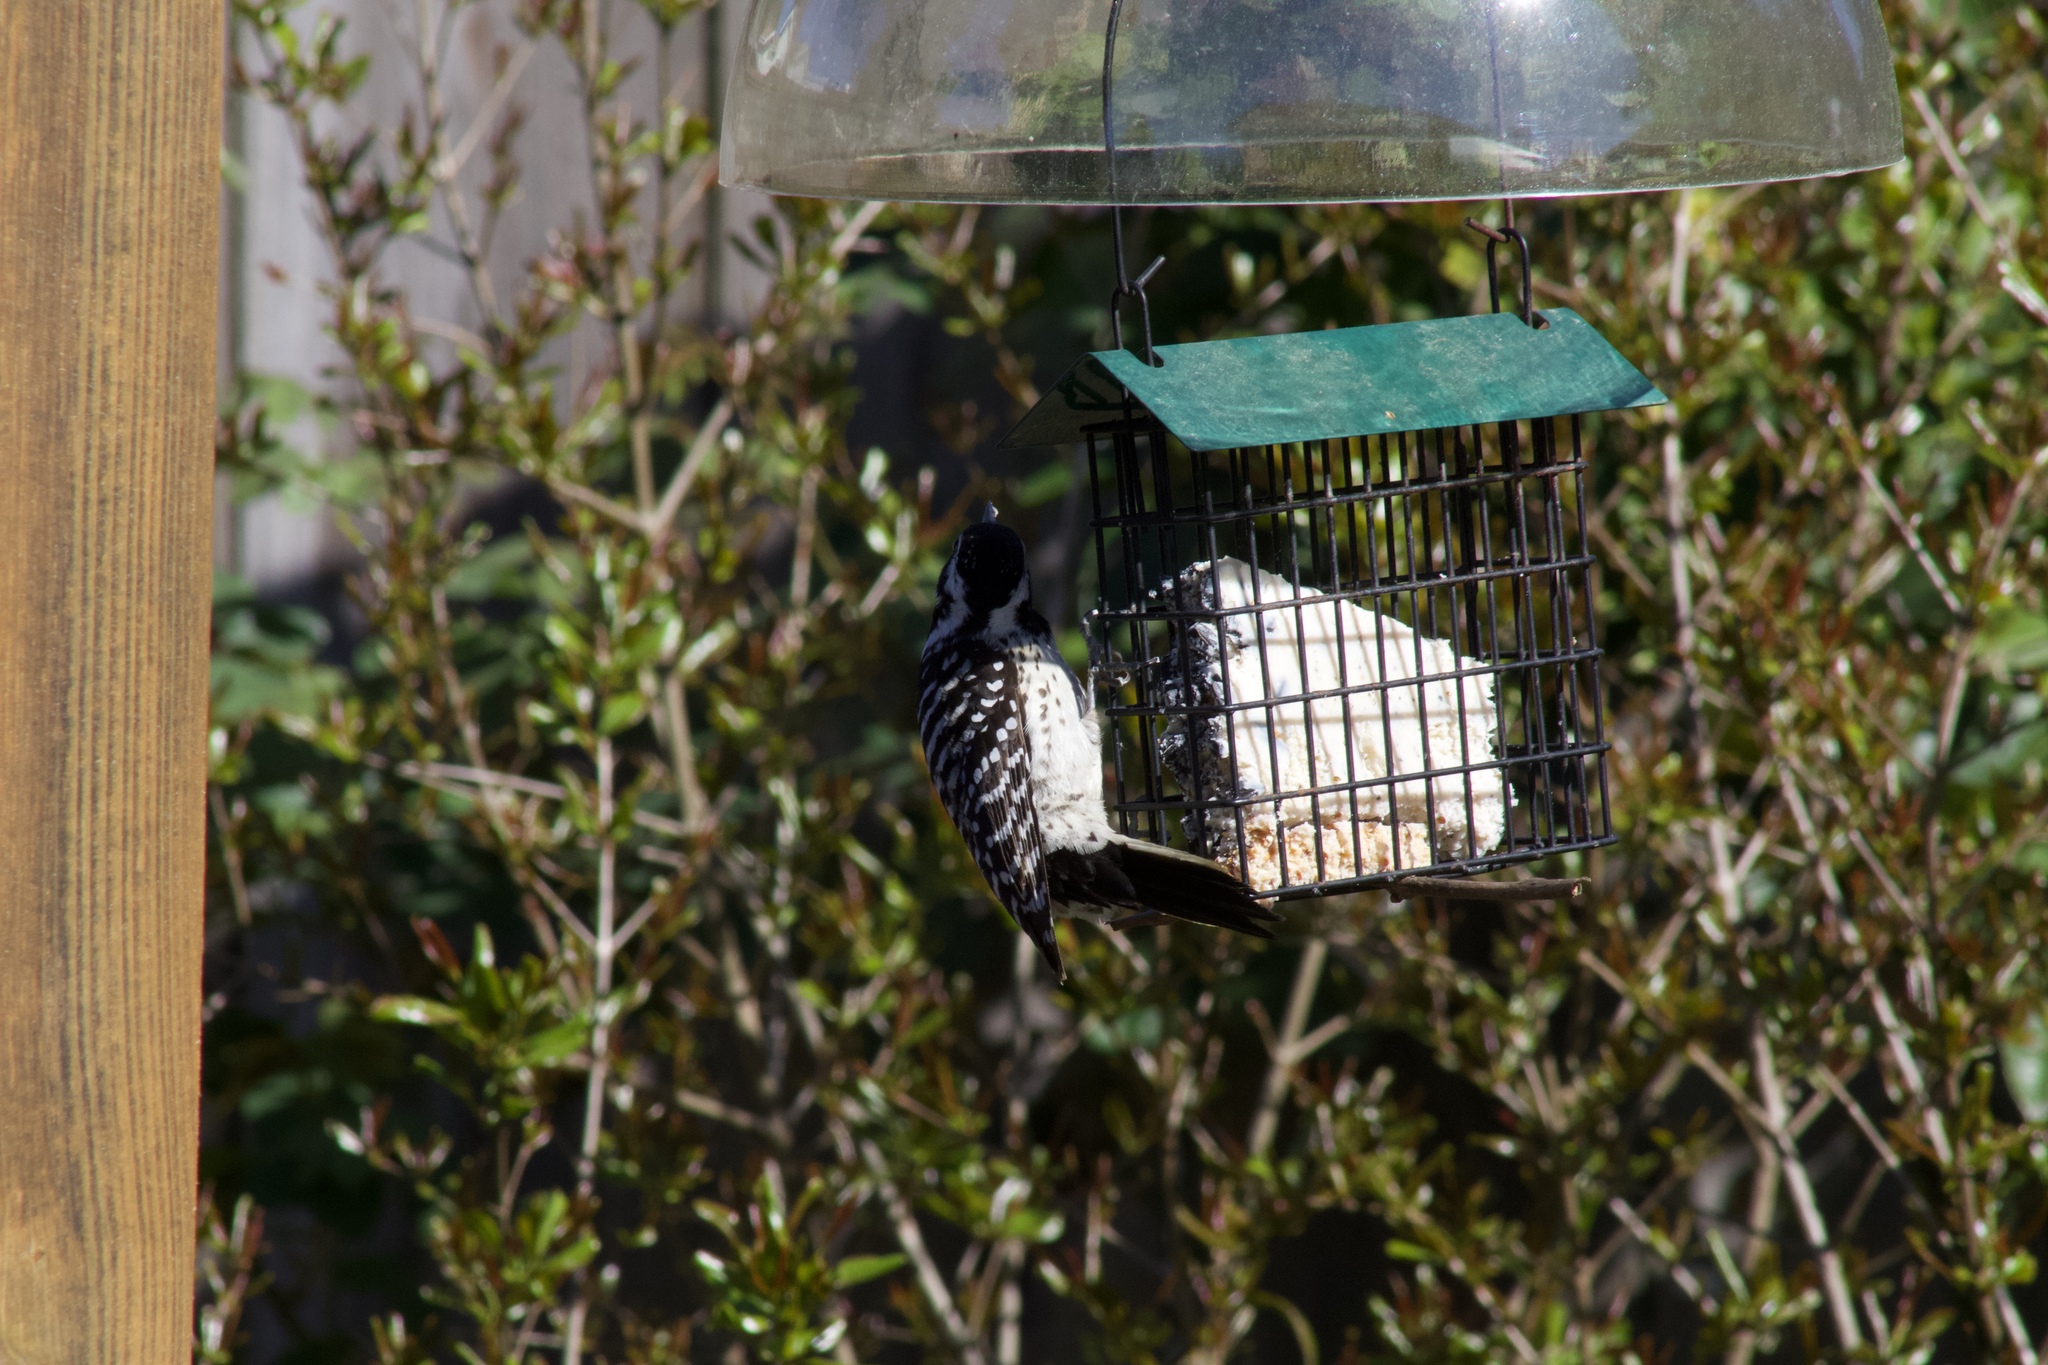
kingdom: Animalia
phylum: Chordata
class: Aves
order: Piciformes
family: Picidae
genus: Dryobates
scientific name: Dryobates nuttallii
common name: Nuttall's woodpecker
